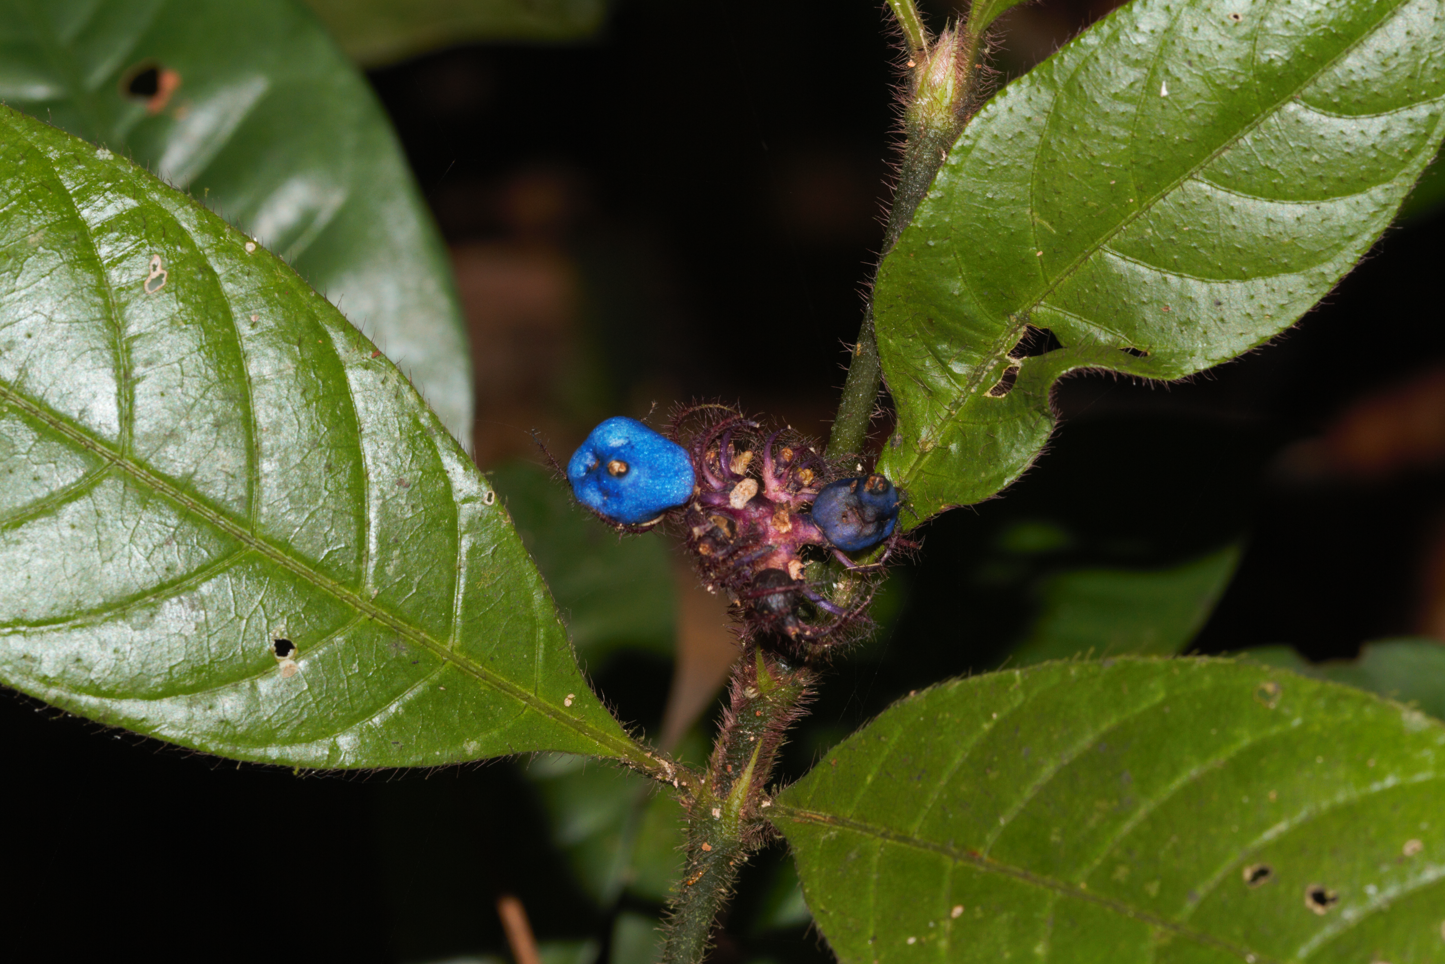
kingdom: Plantae
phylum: Tracheophyta
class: Magnoliopsida
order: Gentianales
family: Rubiaceae
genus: Palicourea
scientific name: Palicourea glabra
